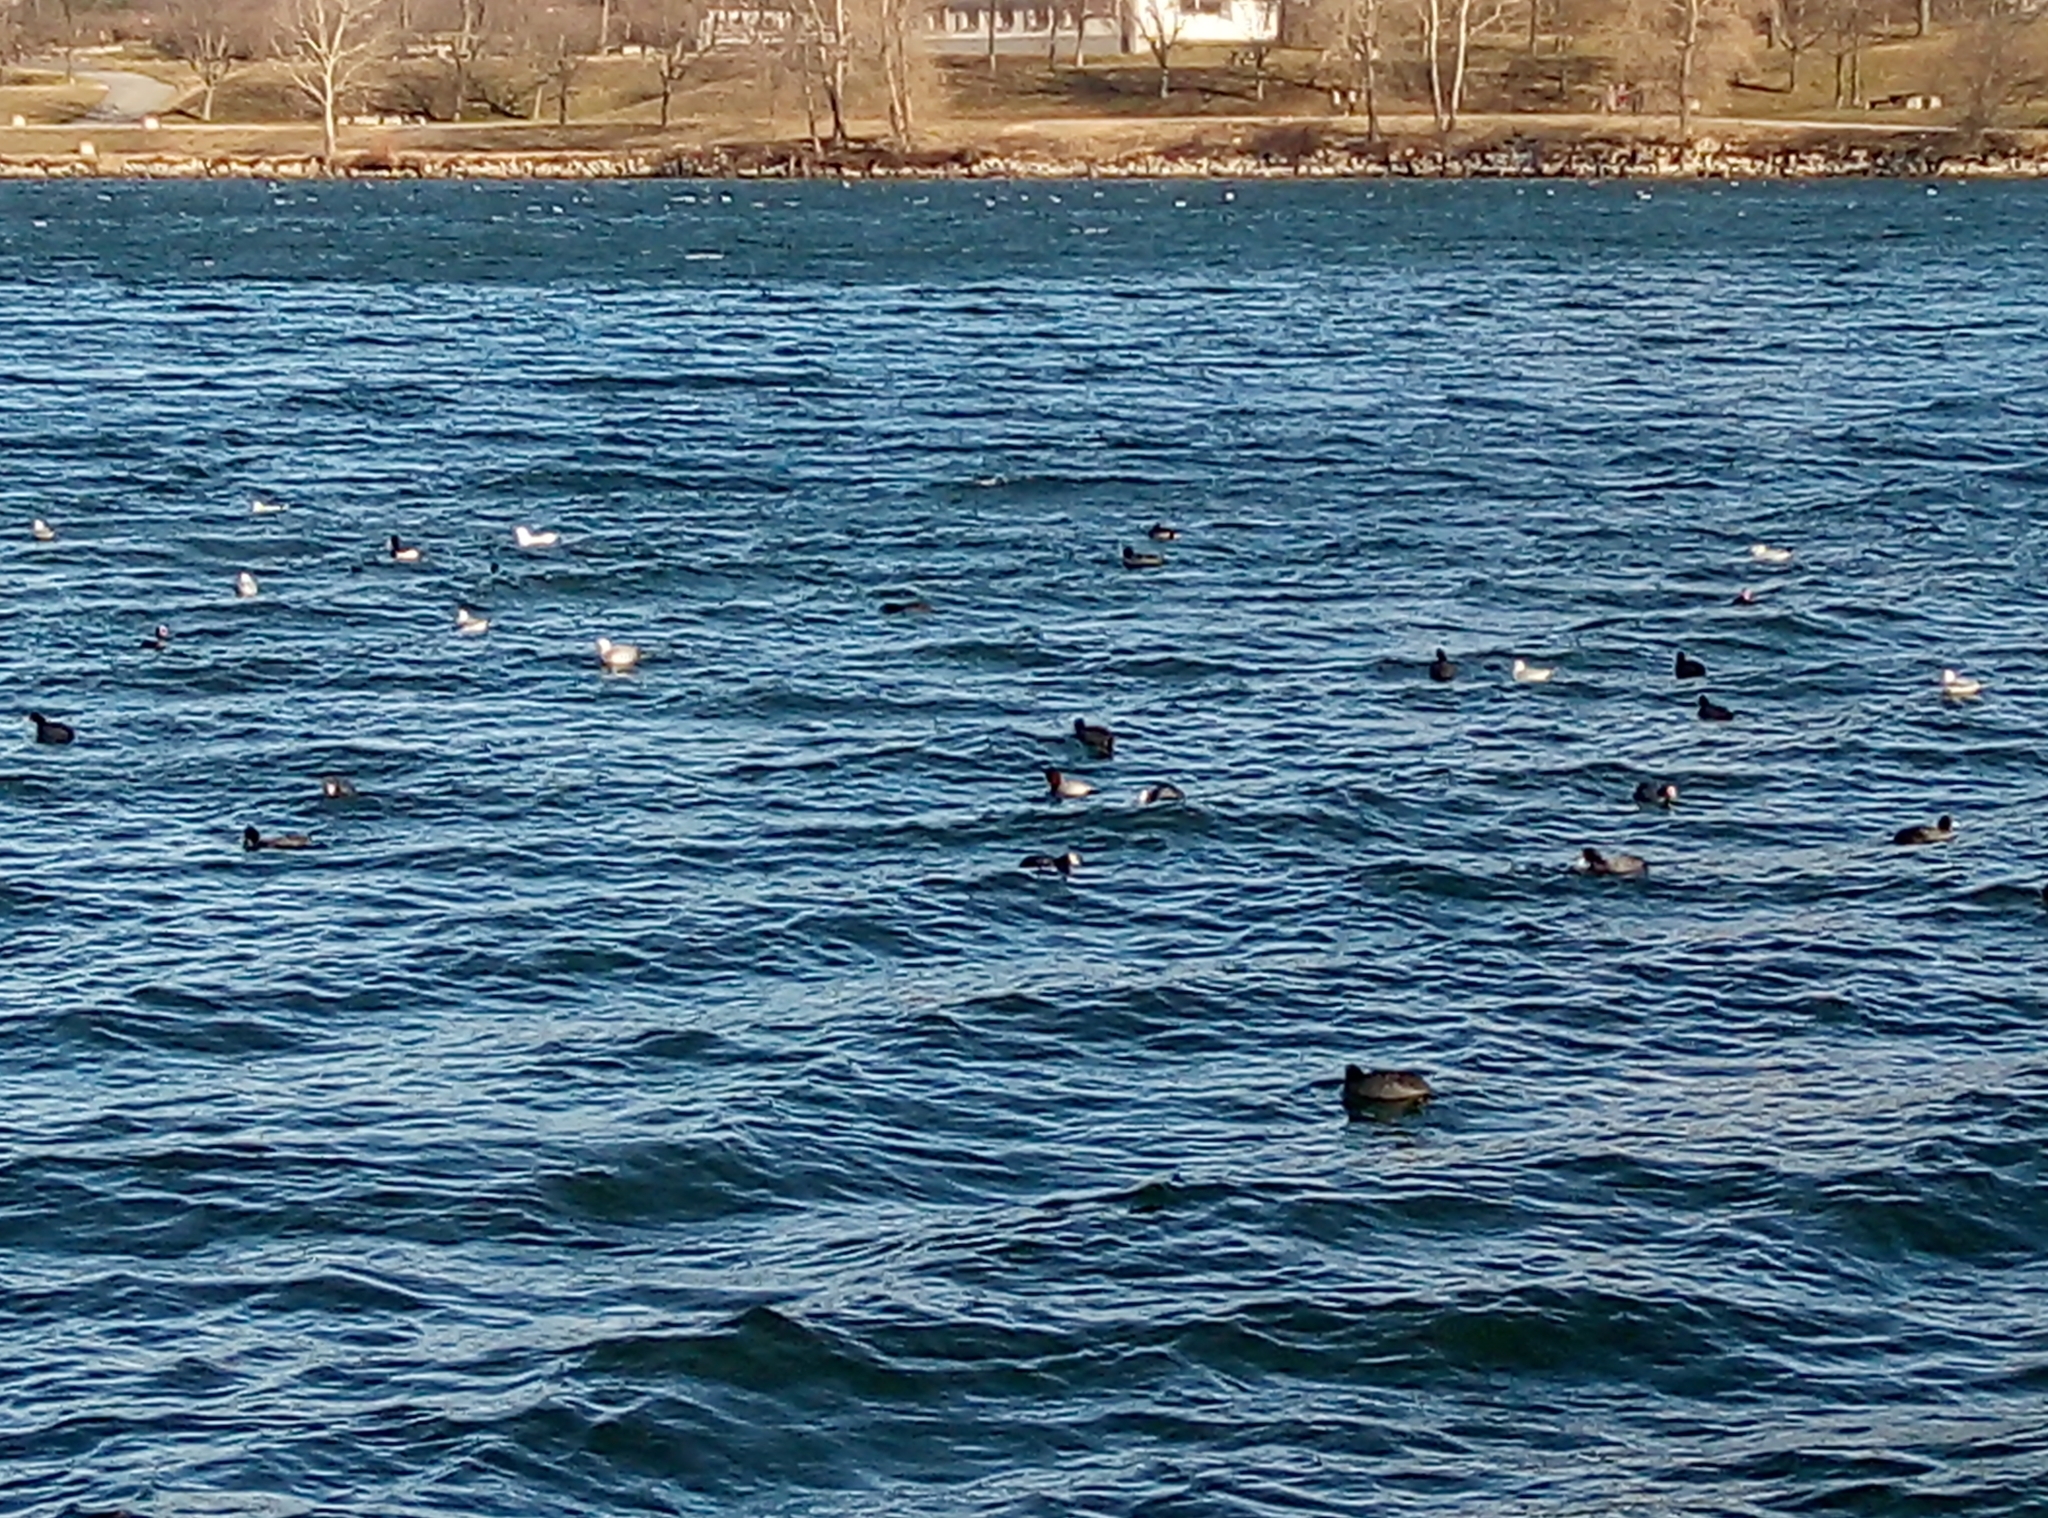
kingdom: Animalia
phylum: Chordata
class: Aves
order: Anseriformes
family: Anatidae
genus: Aythya
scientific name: Aythya ferina
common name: Common pochard
